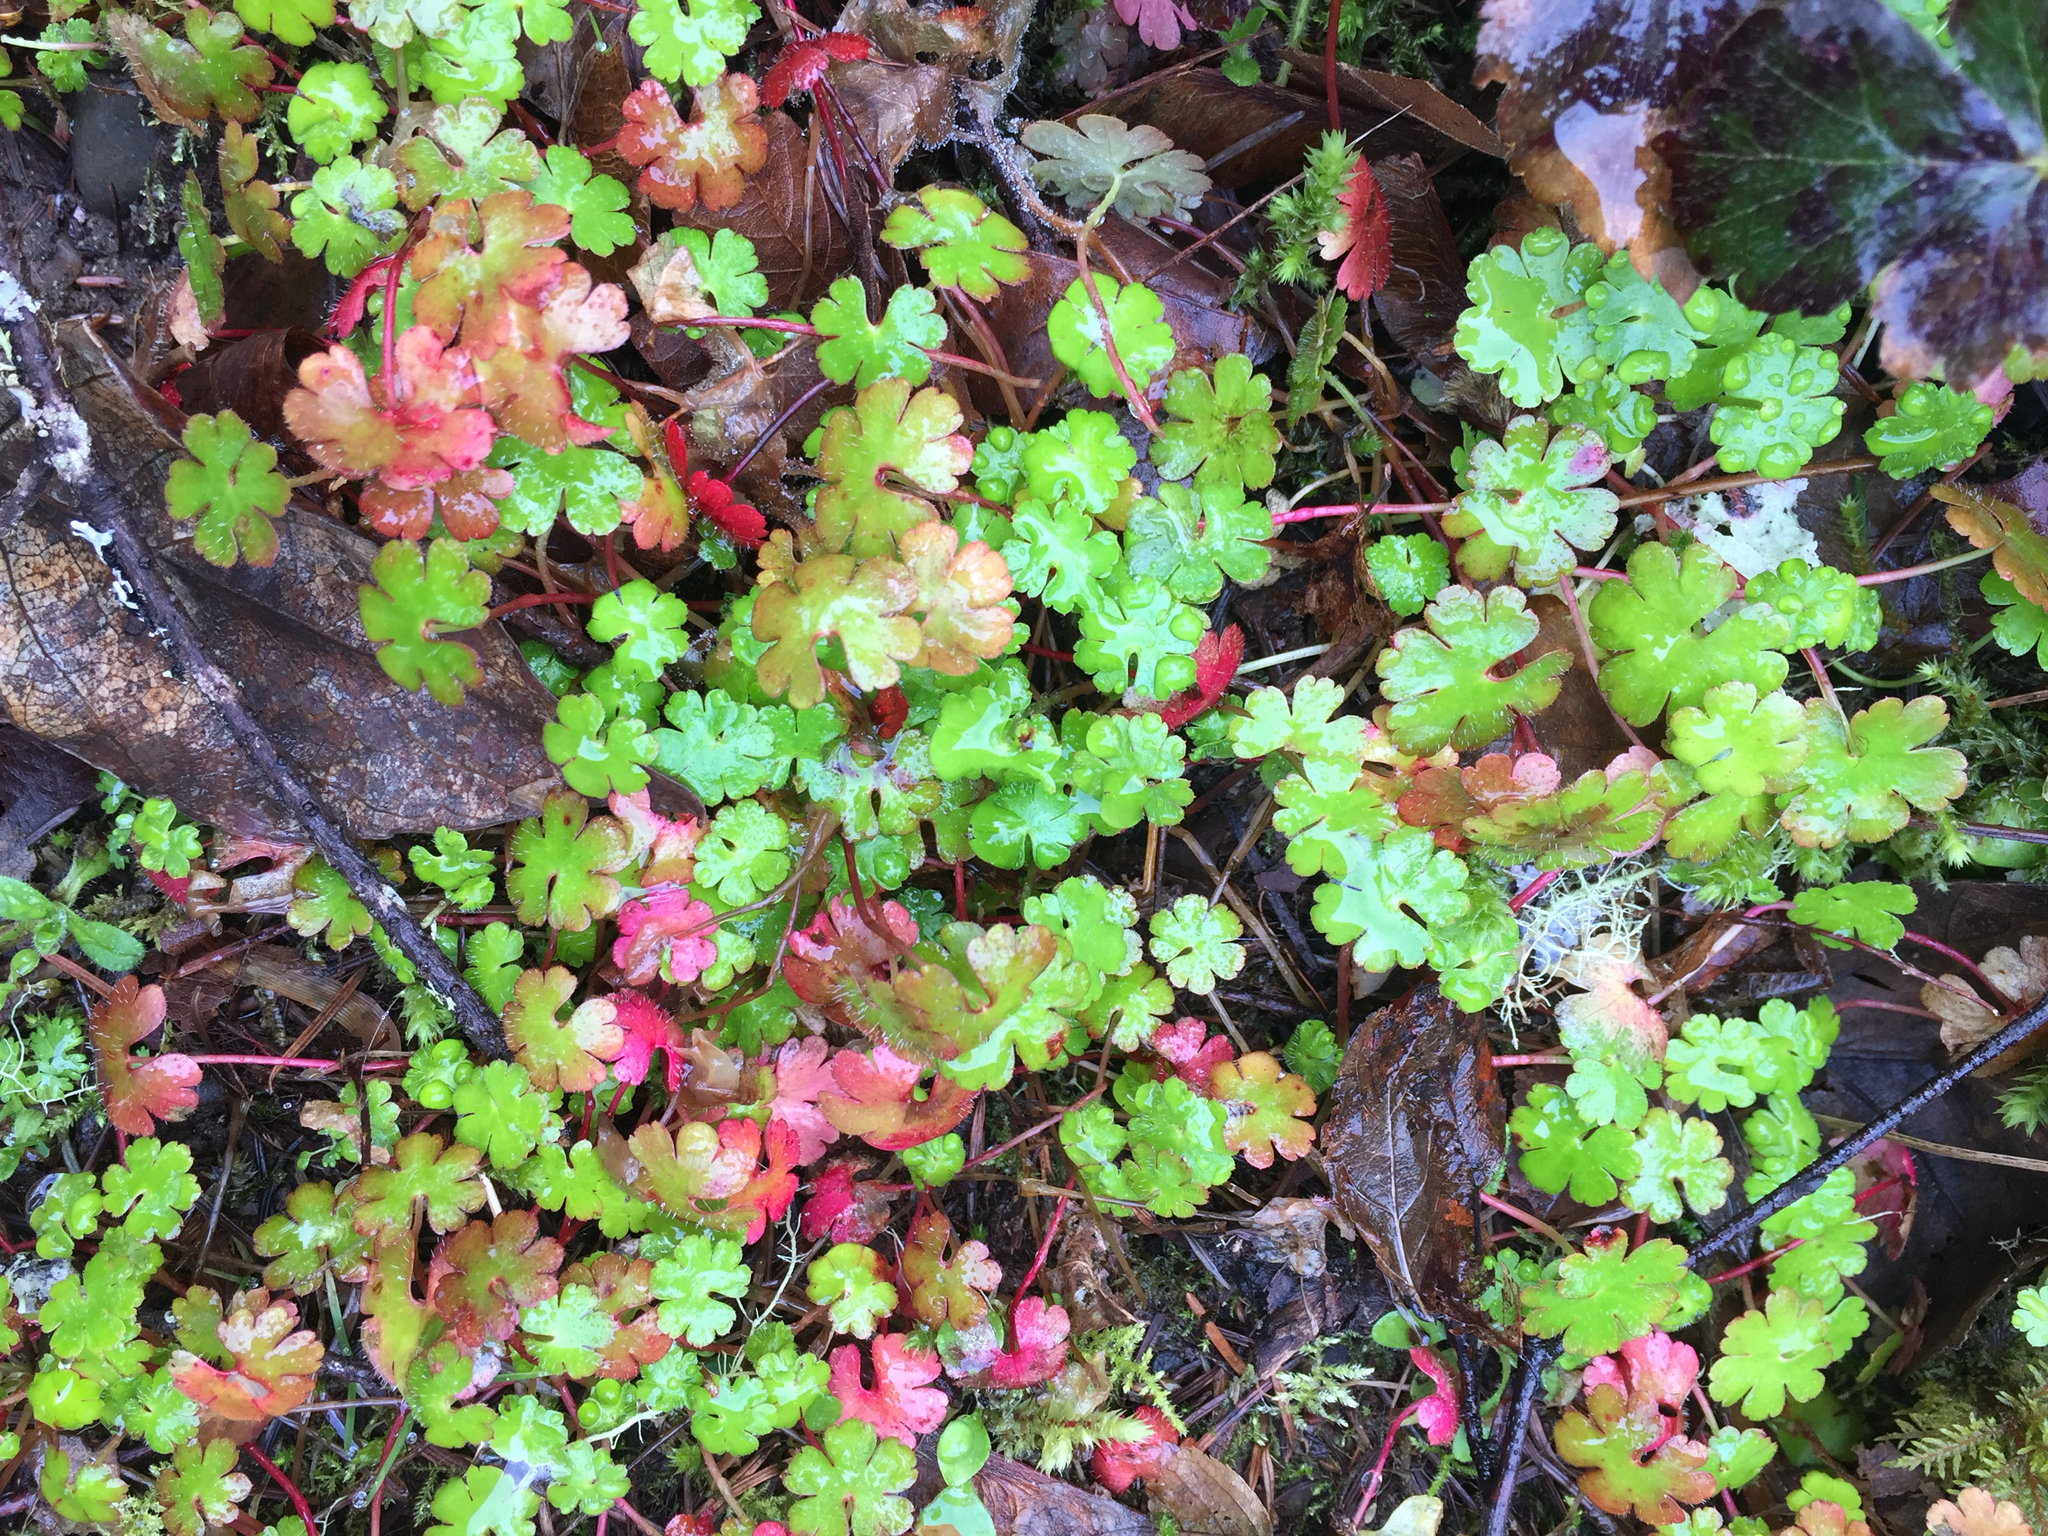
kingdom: Plantae
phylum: Tracheophyta
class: Magnoliopsida
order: Geraniales
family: Geraniaceae
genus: Geranium
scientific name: Geranium lucidum
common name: Shining crane's-bill
